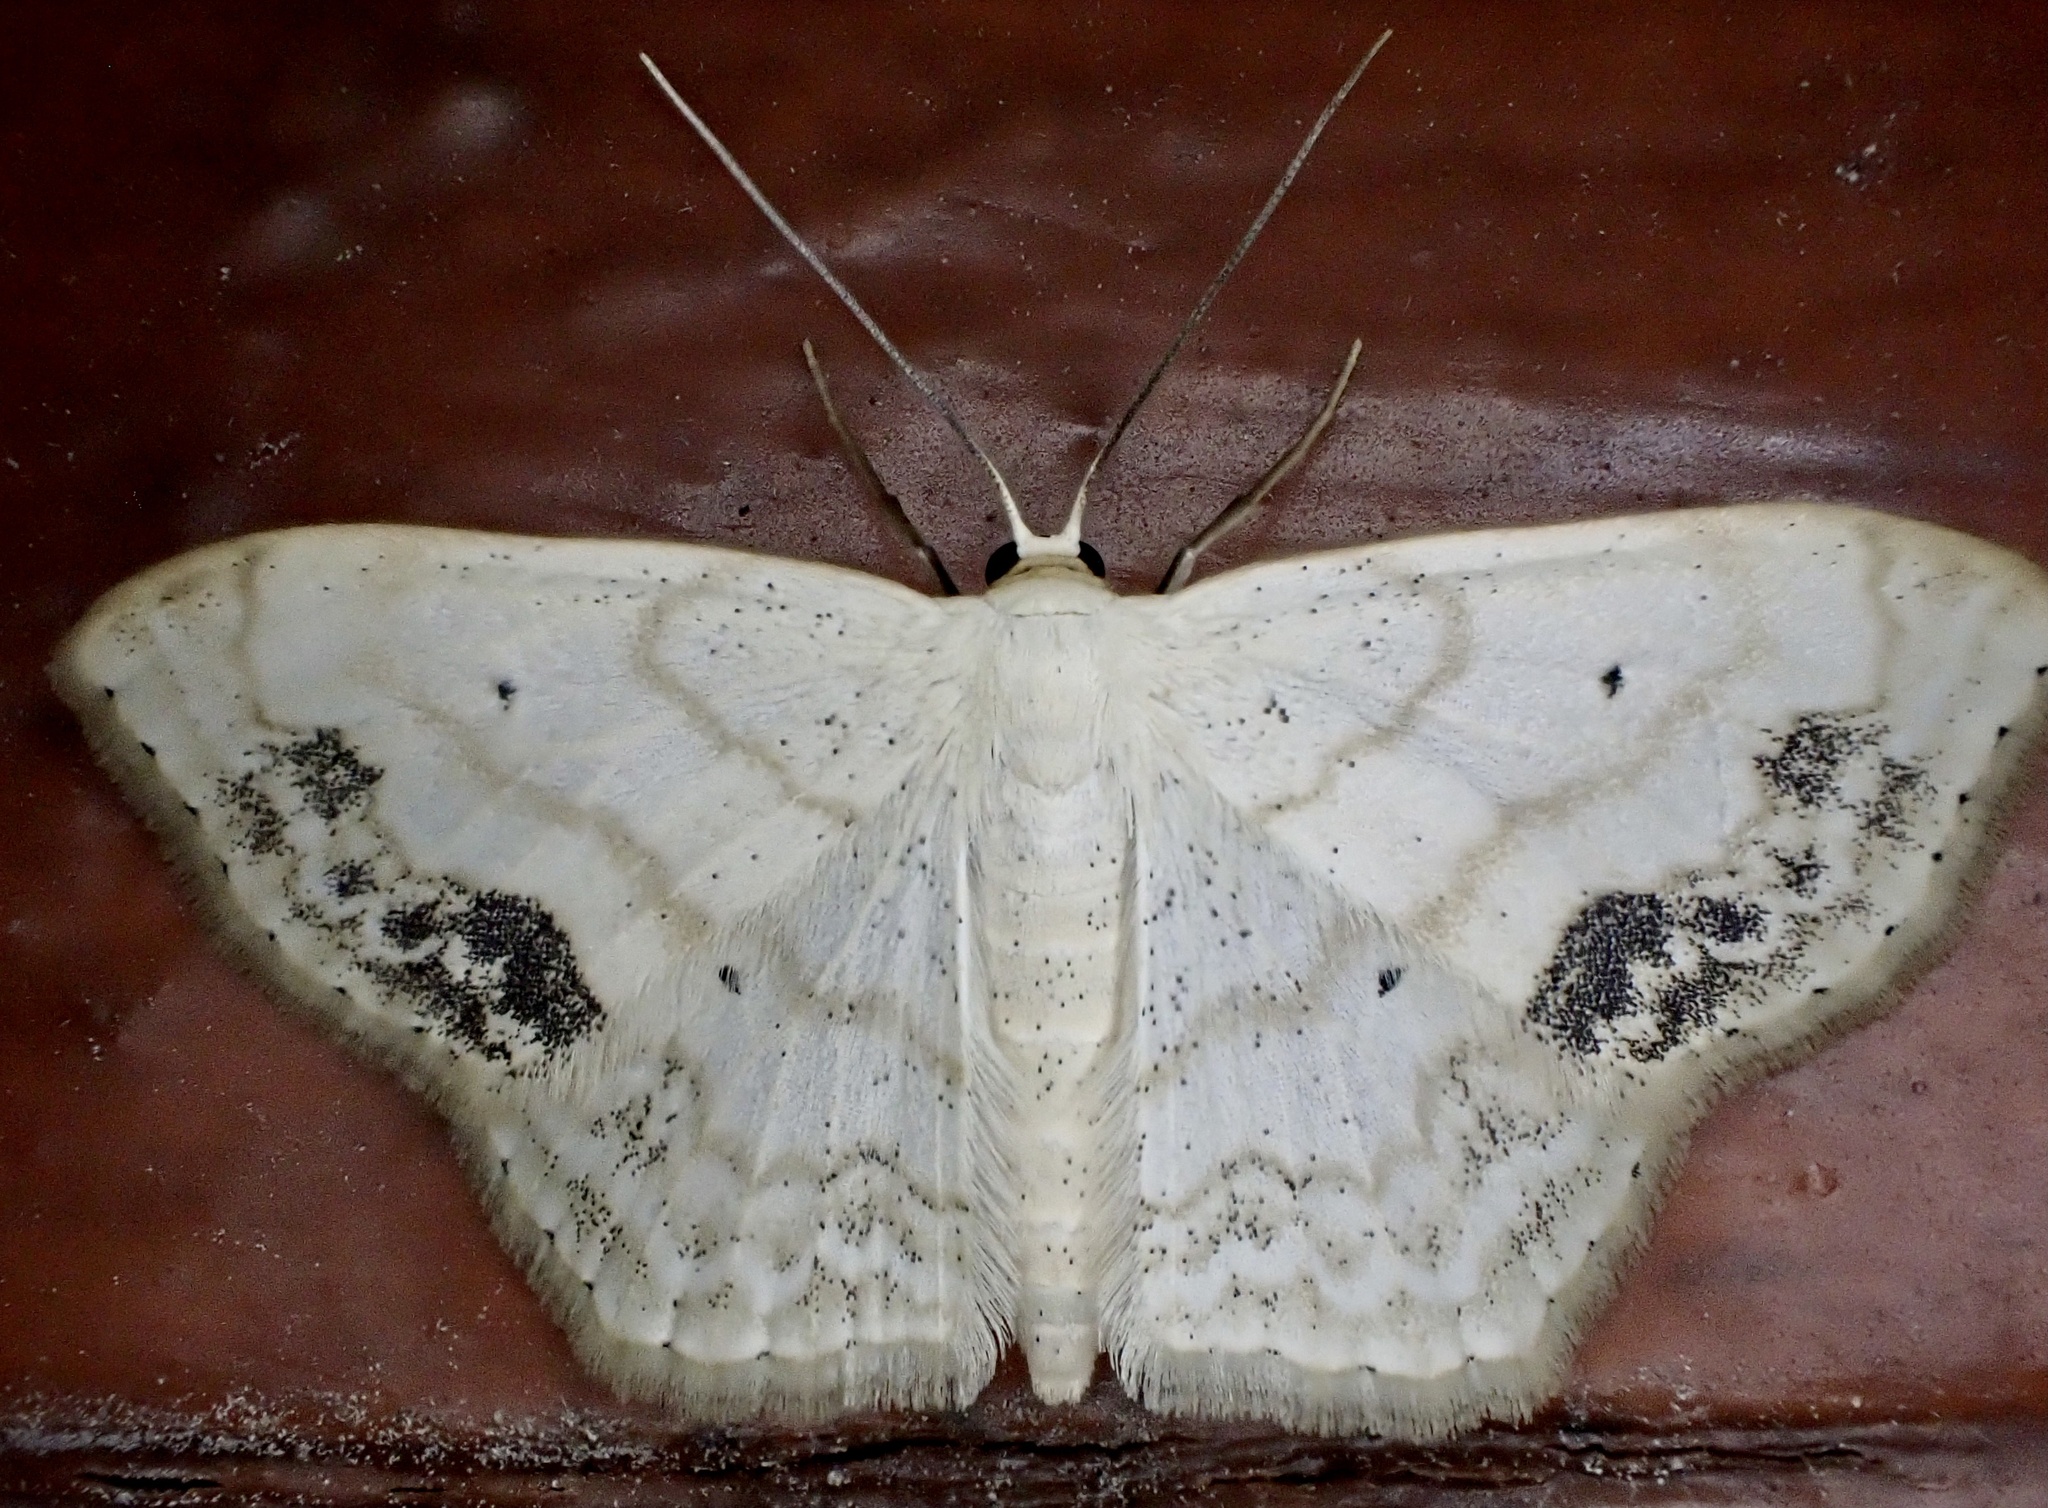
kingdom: Animalia
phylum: Arthropoda
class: Insecta
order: Lepidoptera
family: Geometridae
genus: Scopula
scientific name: Scopula limboundata
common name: Large lace border
